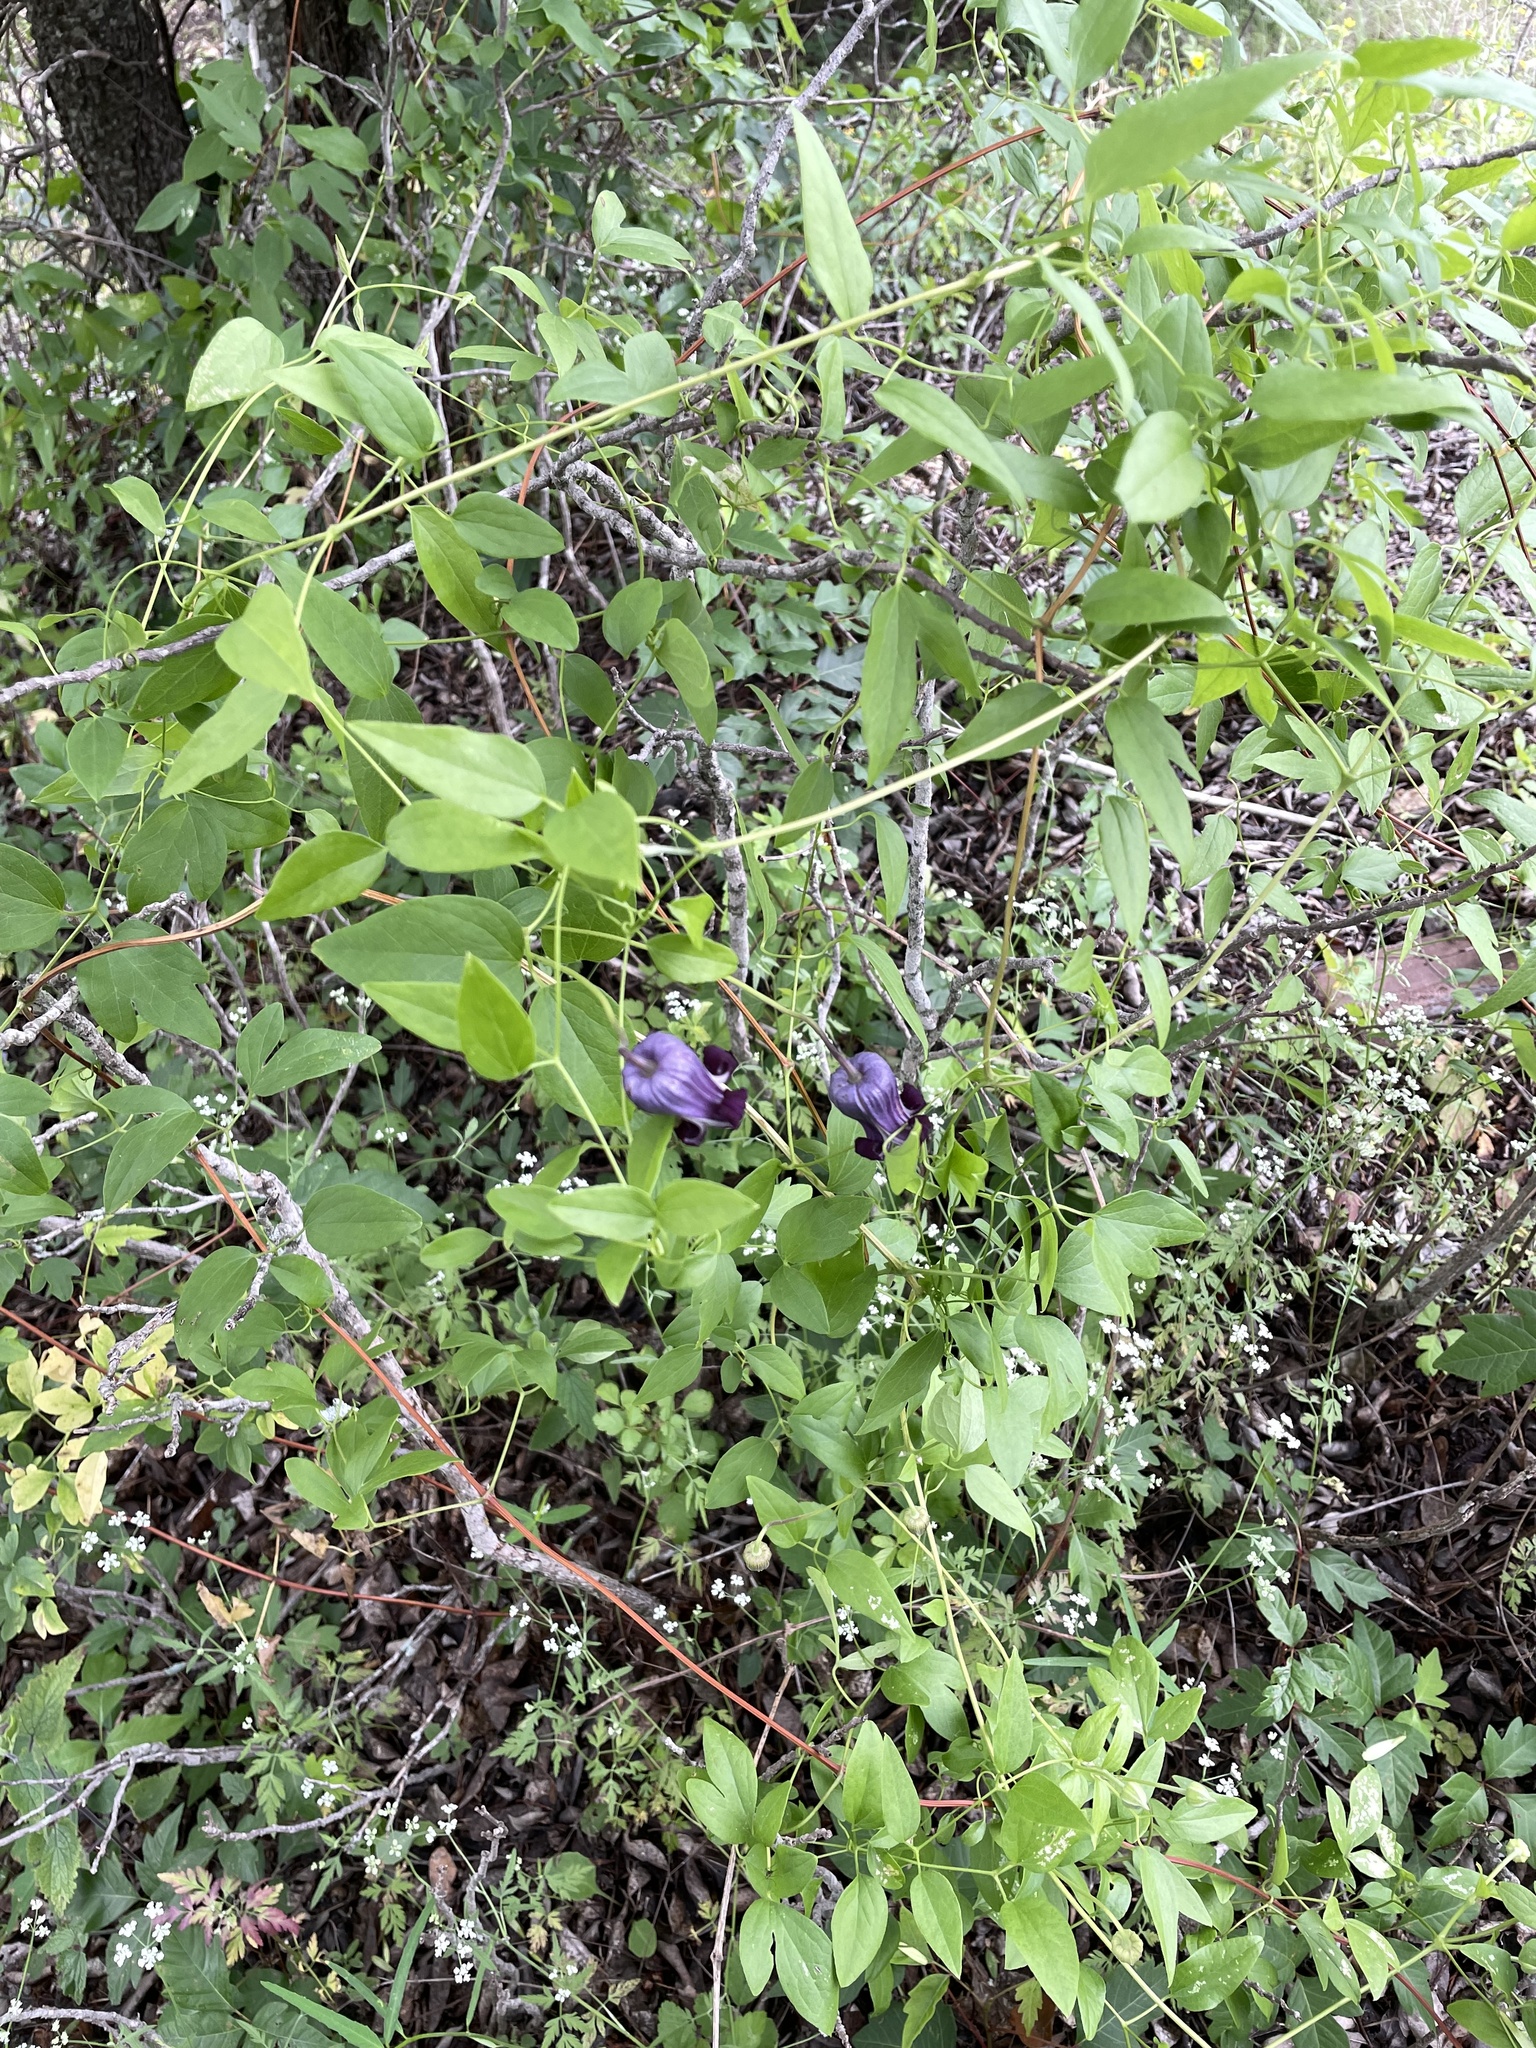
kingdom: Plantae
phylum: Tracheophyta
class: Magnoliopsida
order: Ranunculales
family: Ranunculaceae
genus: Clematis
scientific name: Clematis pitcheri
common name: Bellflower clematis
